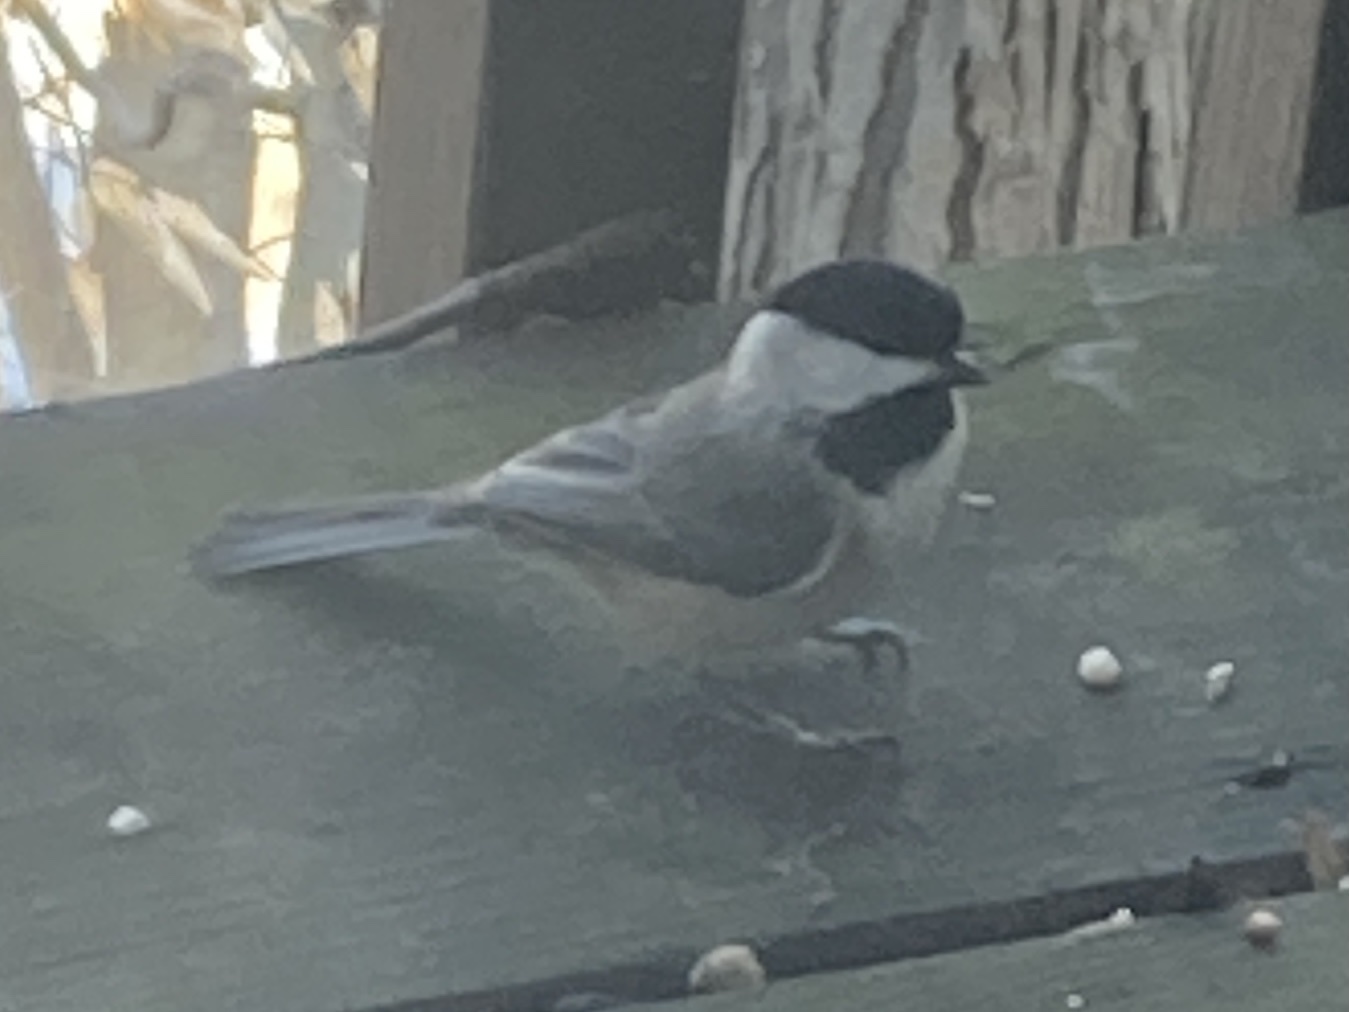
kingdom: Animalia
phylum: Chordata
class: Aves
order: Passeriformes
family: Paridae
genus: Poecile
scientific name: Poecile carolinensis
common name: Carolina chickadee
